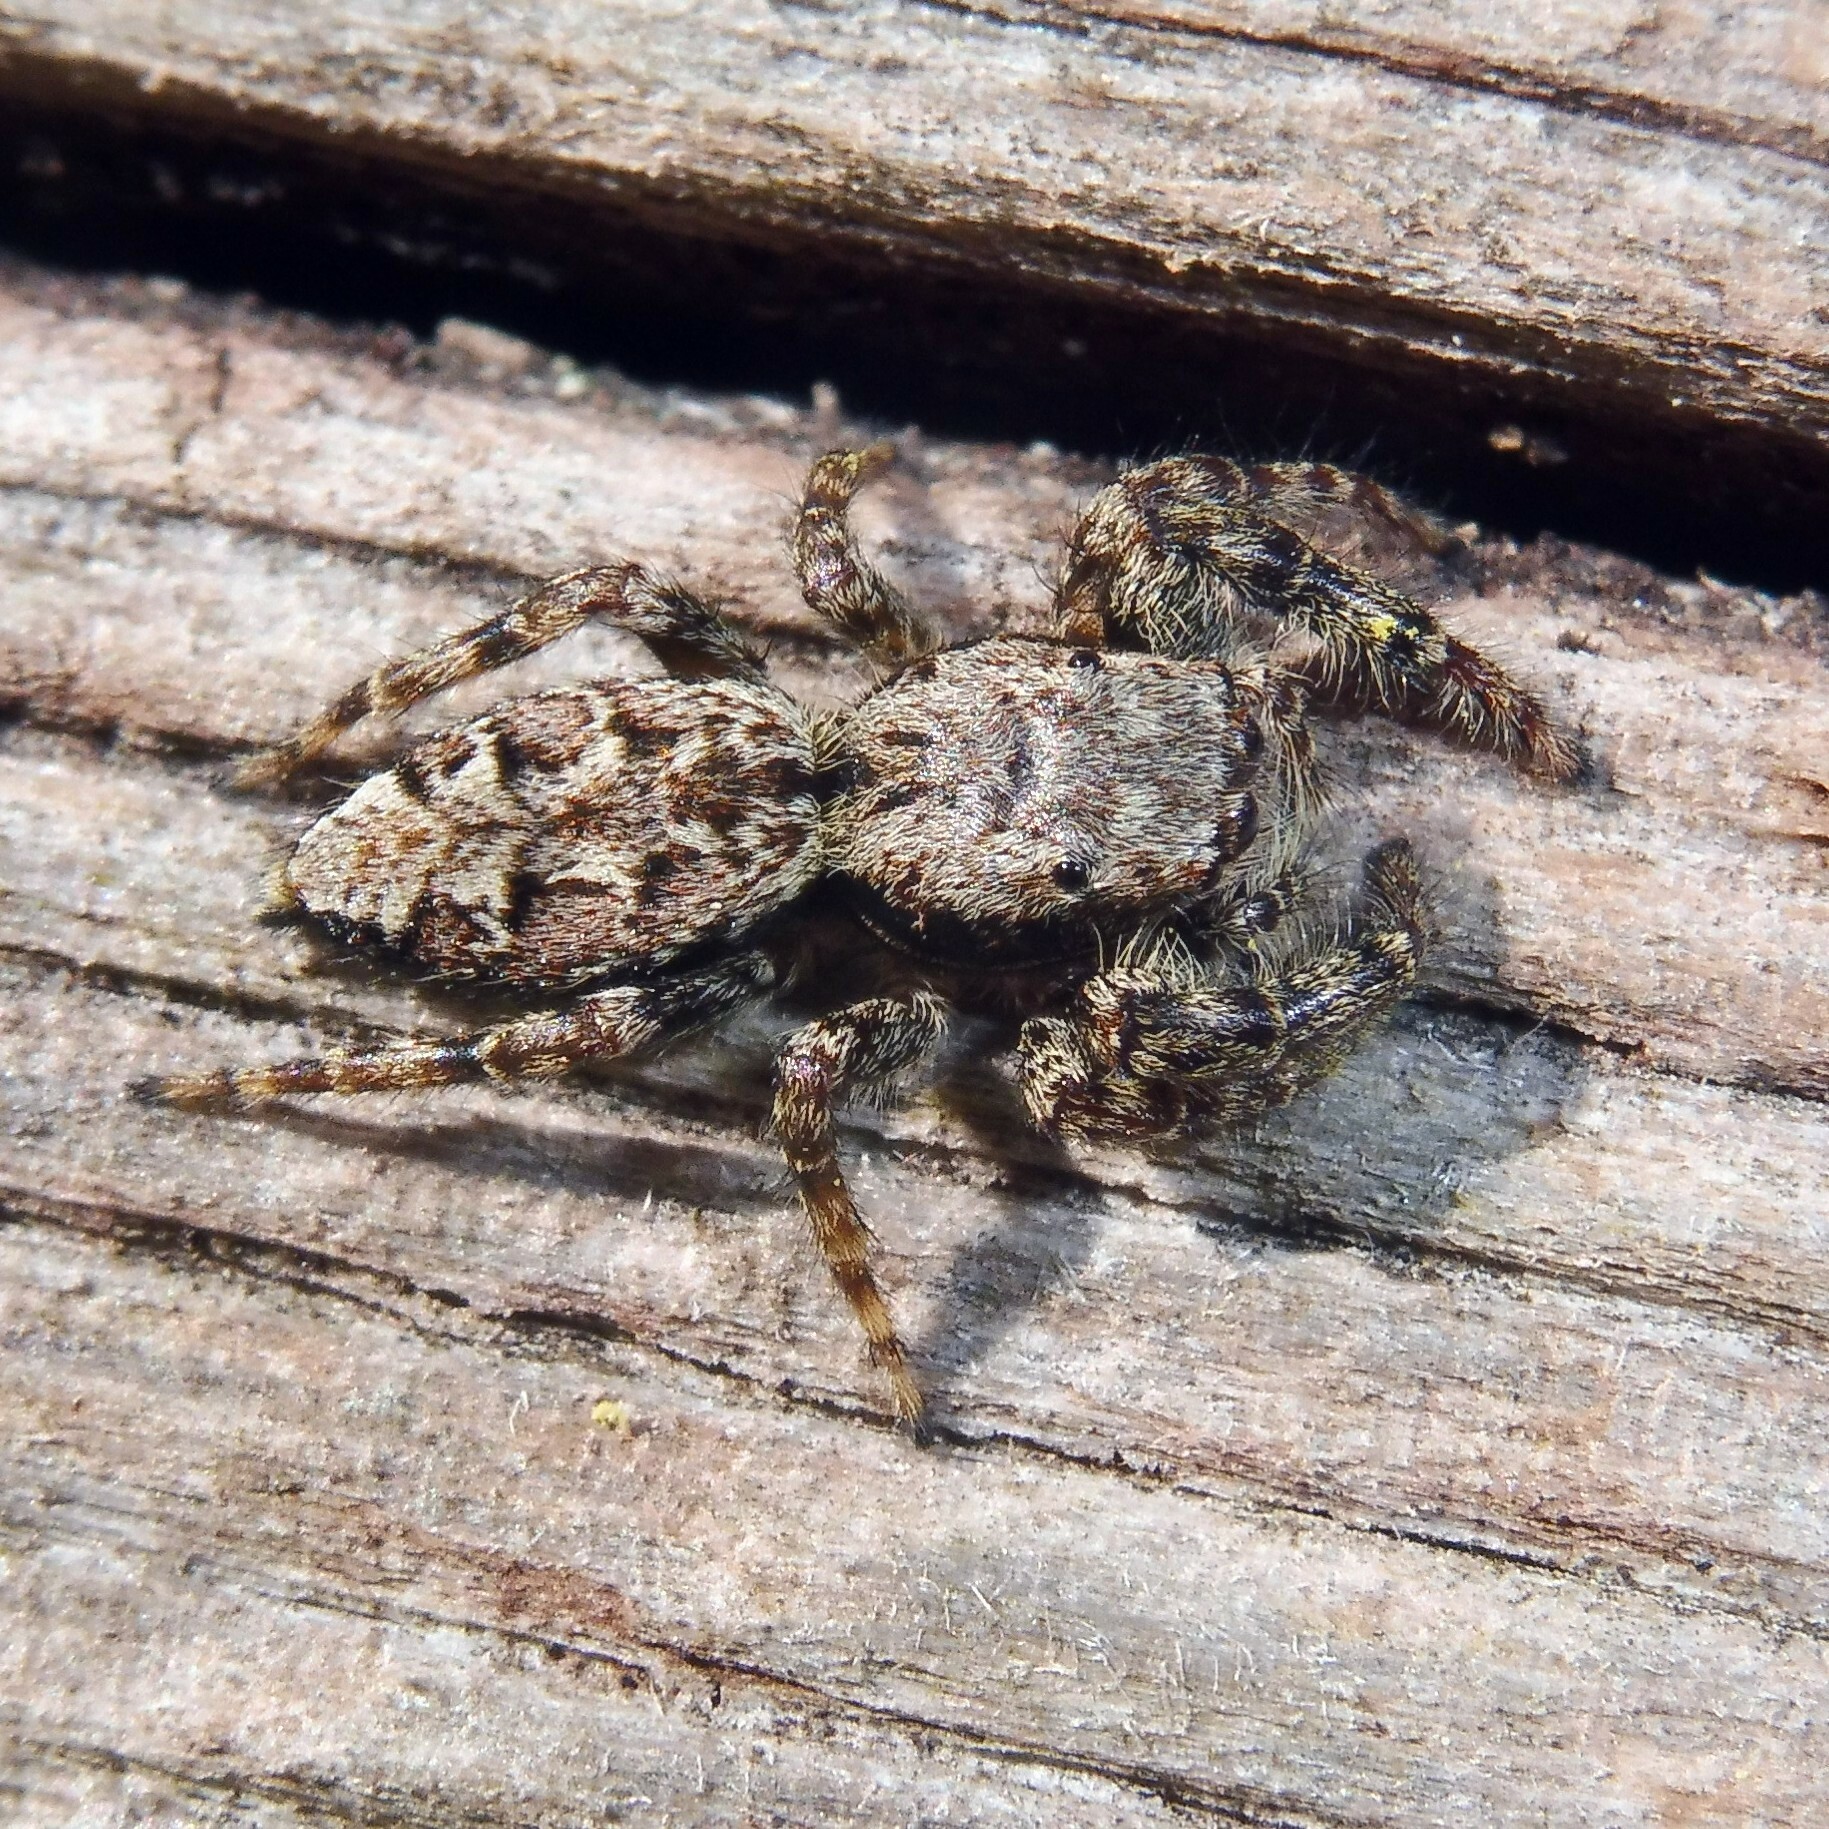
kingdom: Animalia
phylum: Arthropoda
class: Arachnida
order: Araneae
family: Salticidae
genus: Marpissa
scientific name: Marpissa muscosa
